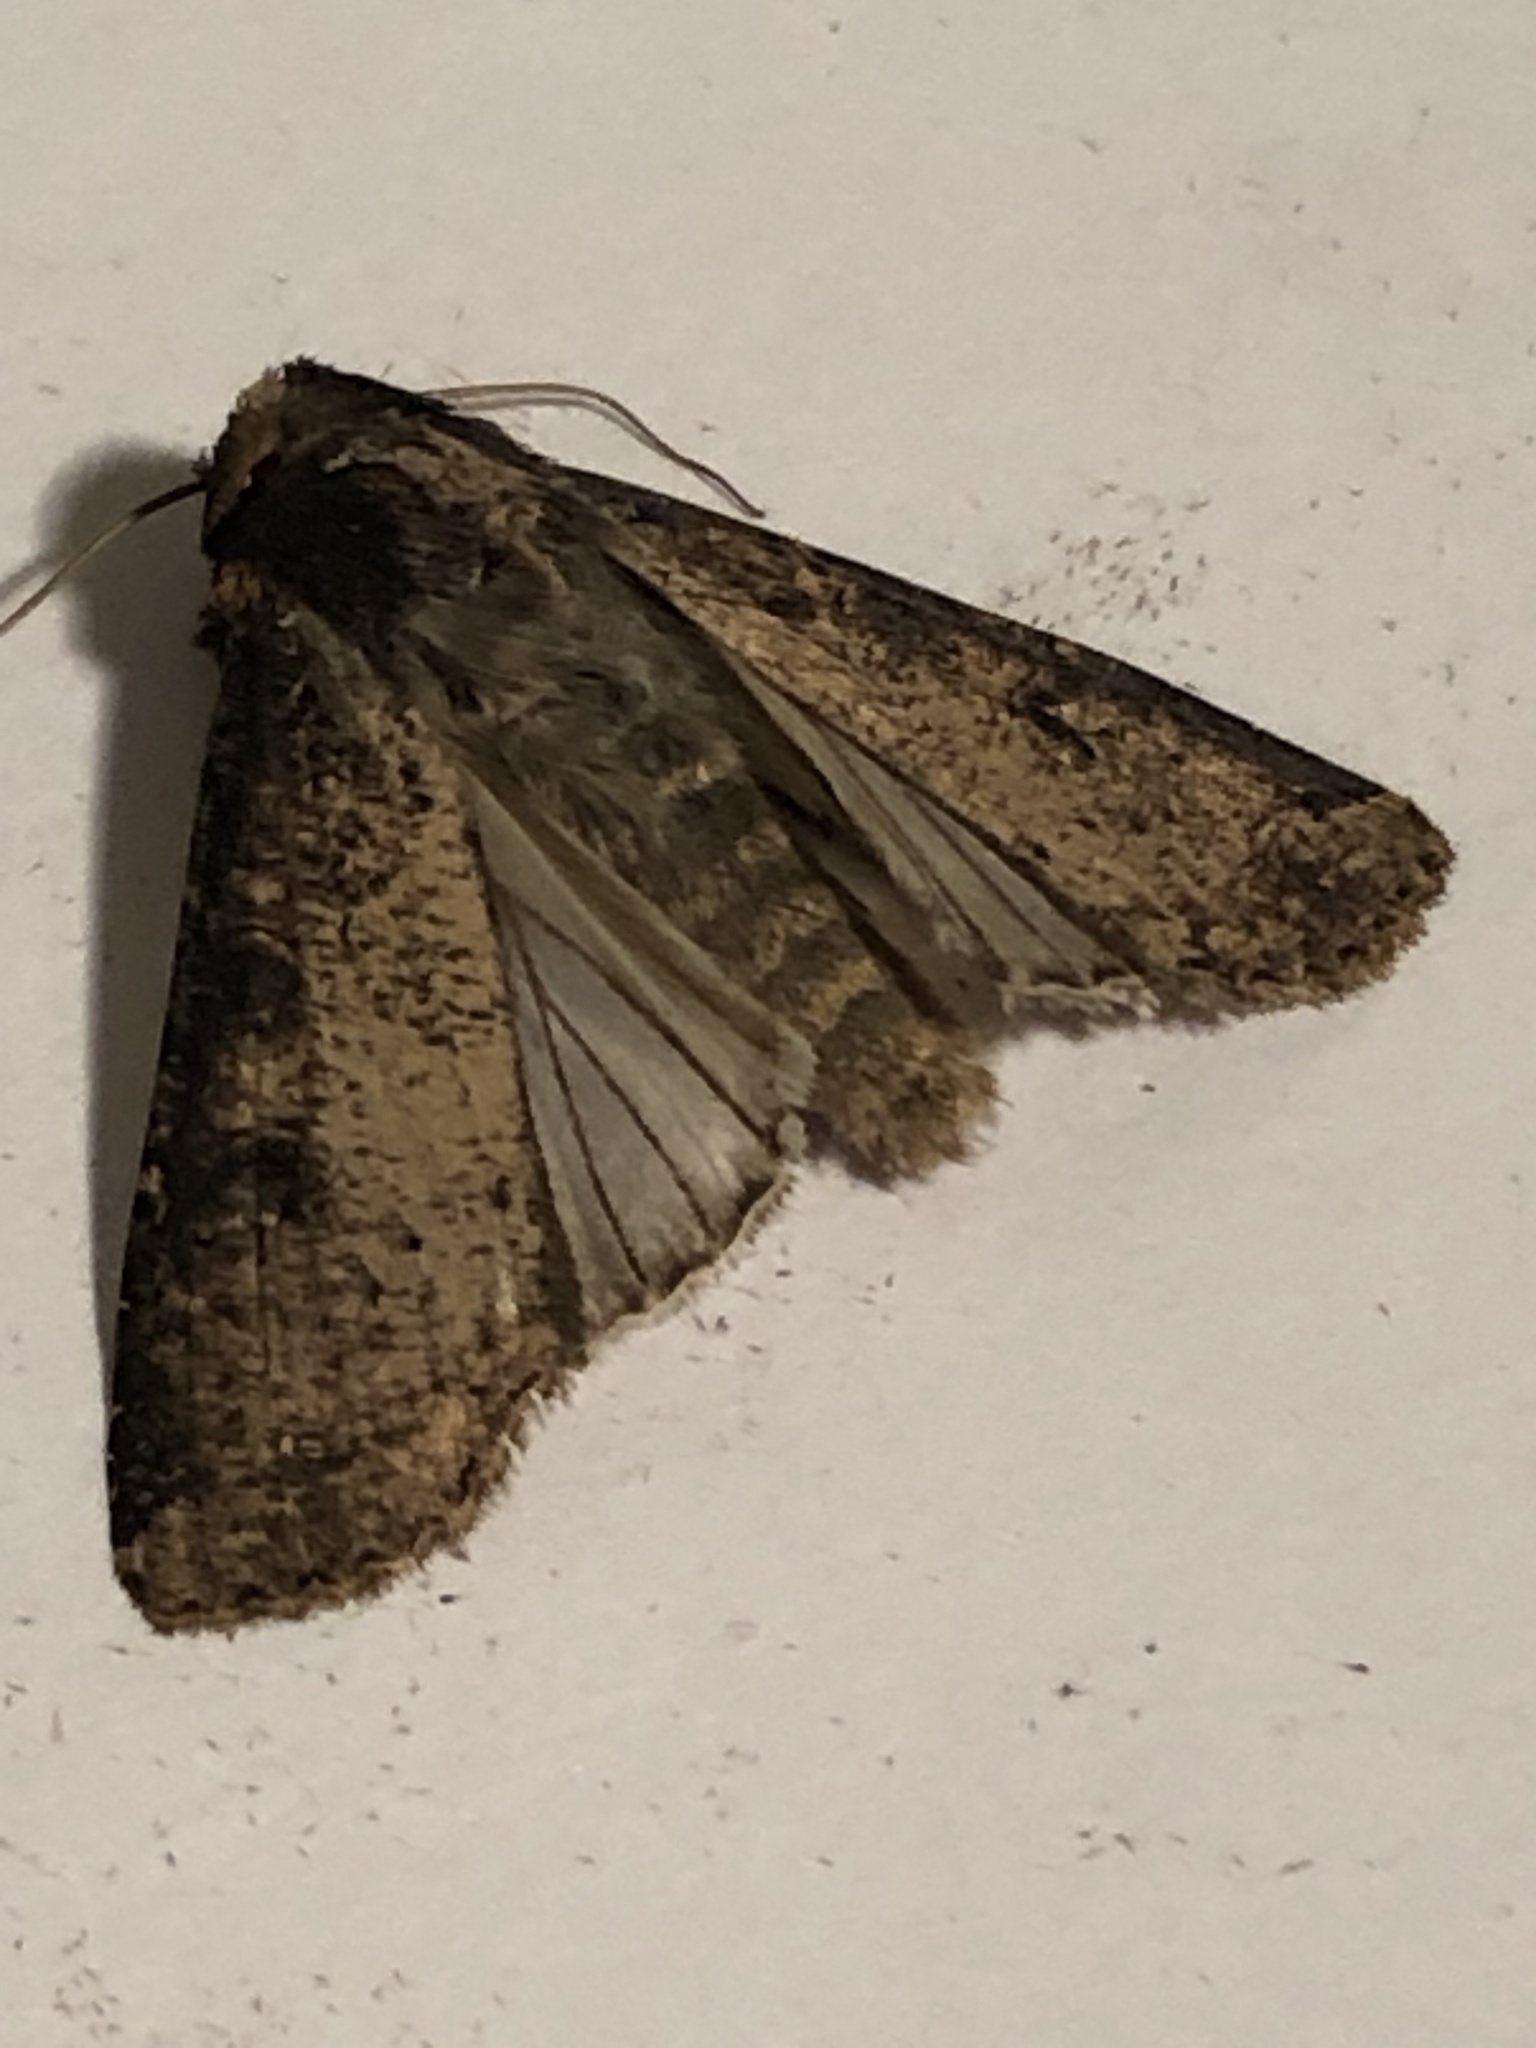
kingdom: Animalia
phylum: Arthropoda
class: Insecta
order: Lepidoptera
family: Noctuidae
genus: Peridroma
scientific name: Peridroma saucia
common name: Pearly underwing
